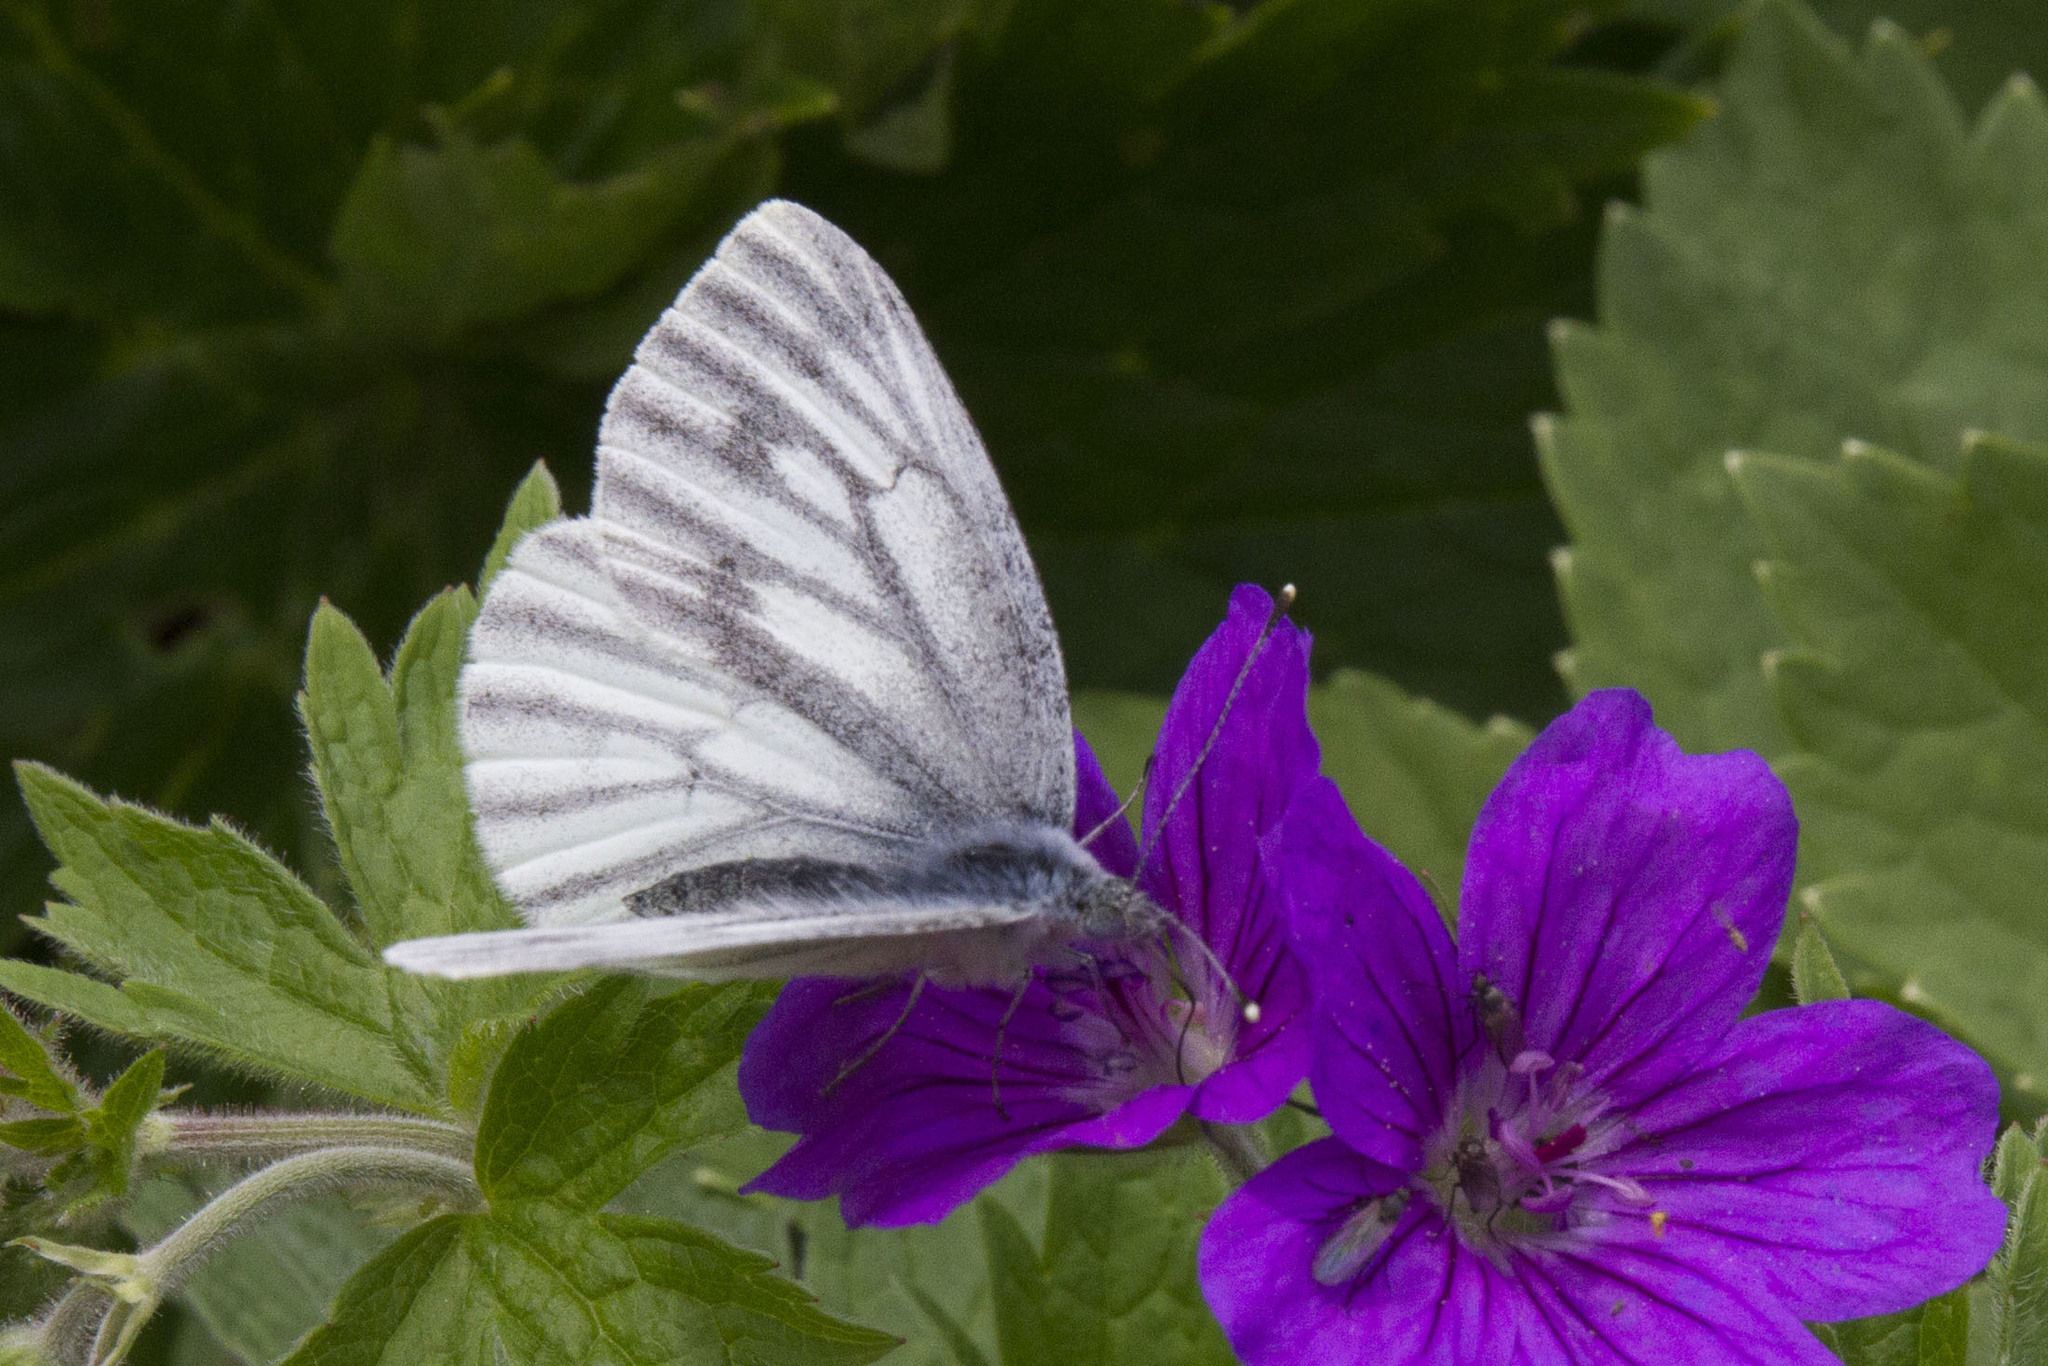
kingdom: Animalia
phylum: Arthropoda
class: Insecta
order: Lepidoptera
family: Pieridae
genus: Pieris
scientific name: Pieris napi
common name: Green-veined white
